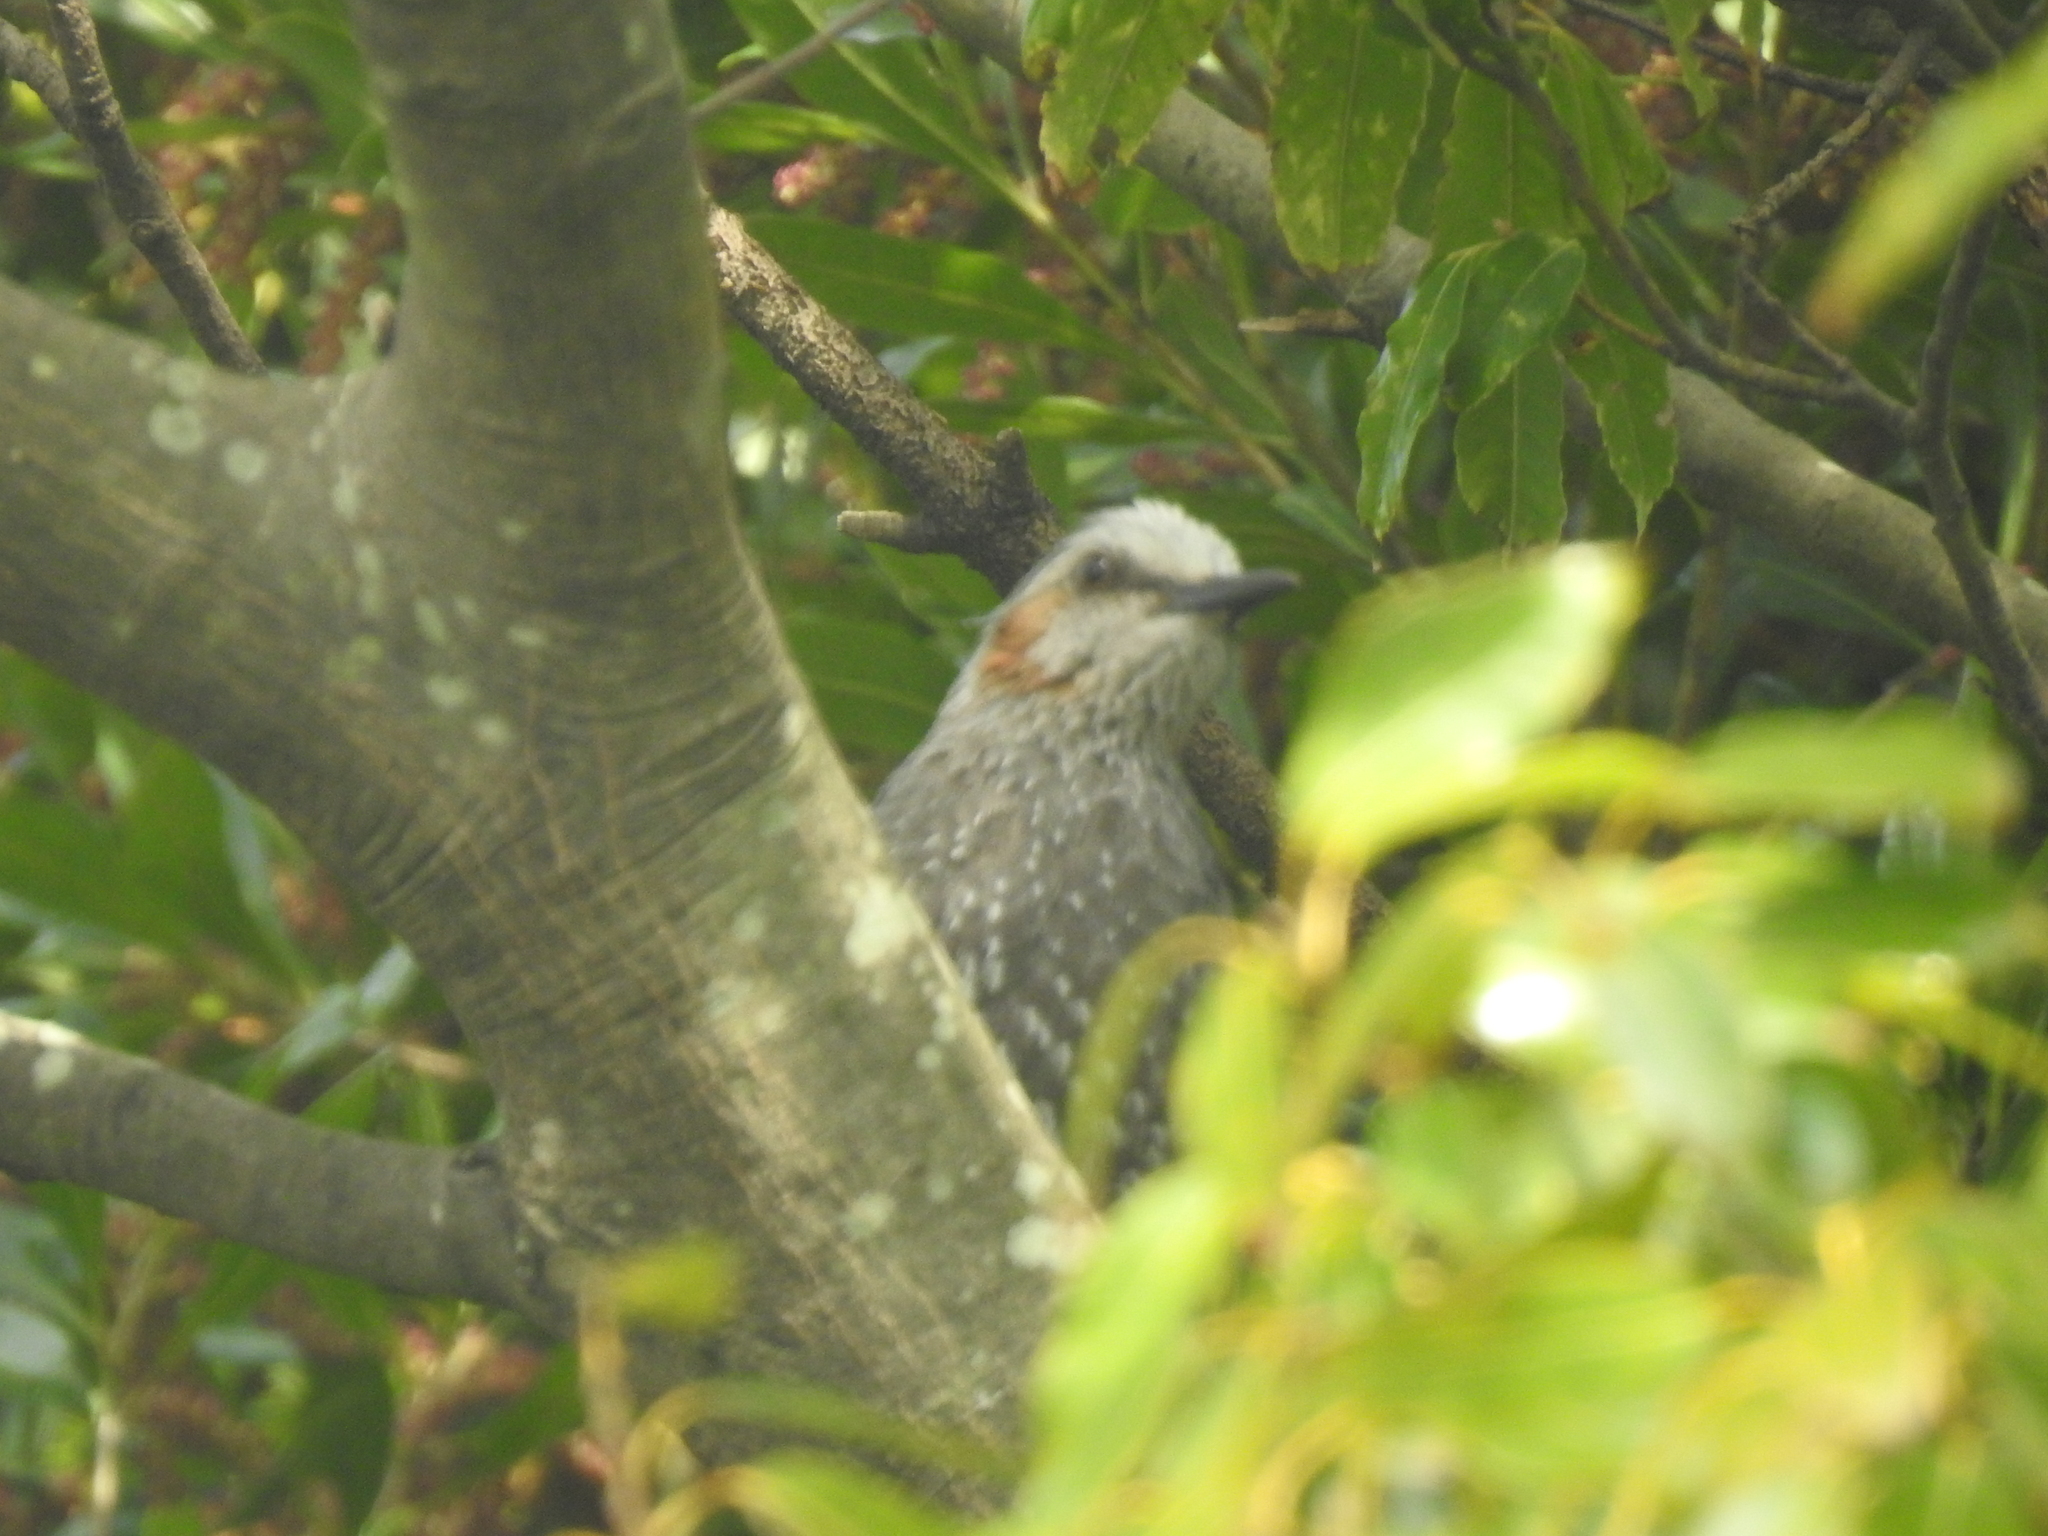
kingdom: Animalia
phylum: Chordata
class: Aves
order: Passeriformes
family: Pycnonotidae
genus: Hypsipetes
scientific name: Hypsipetes amaurotis
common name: Brown-eared bulbul
